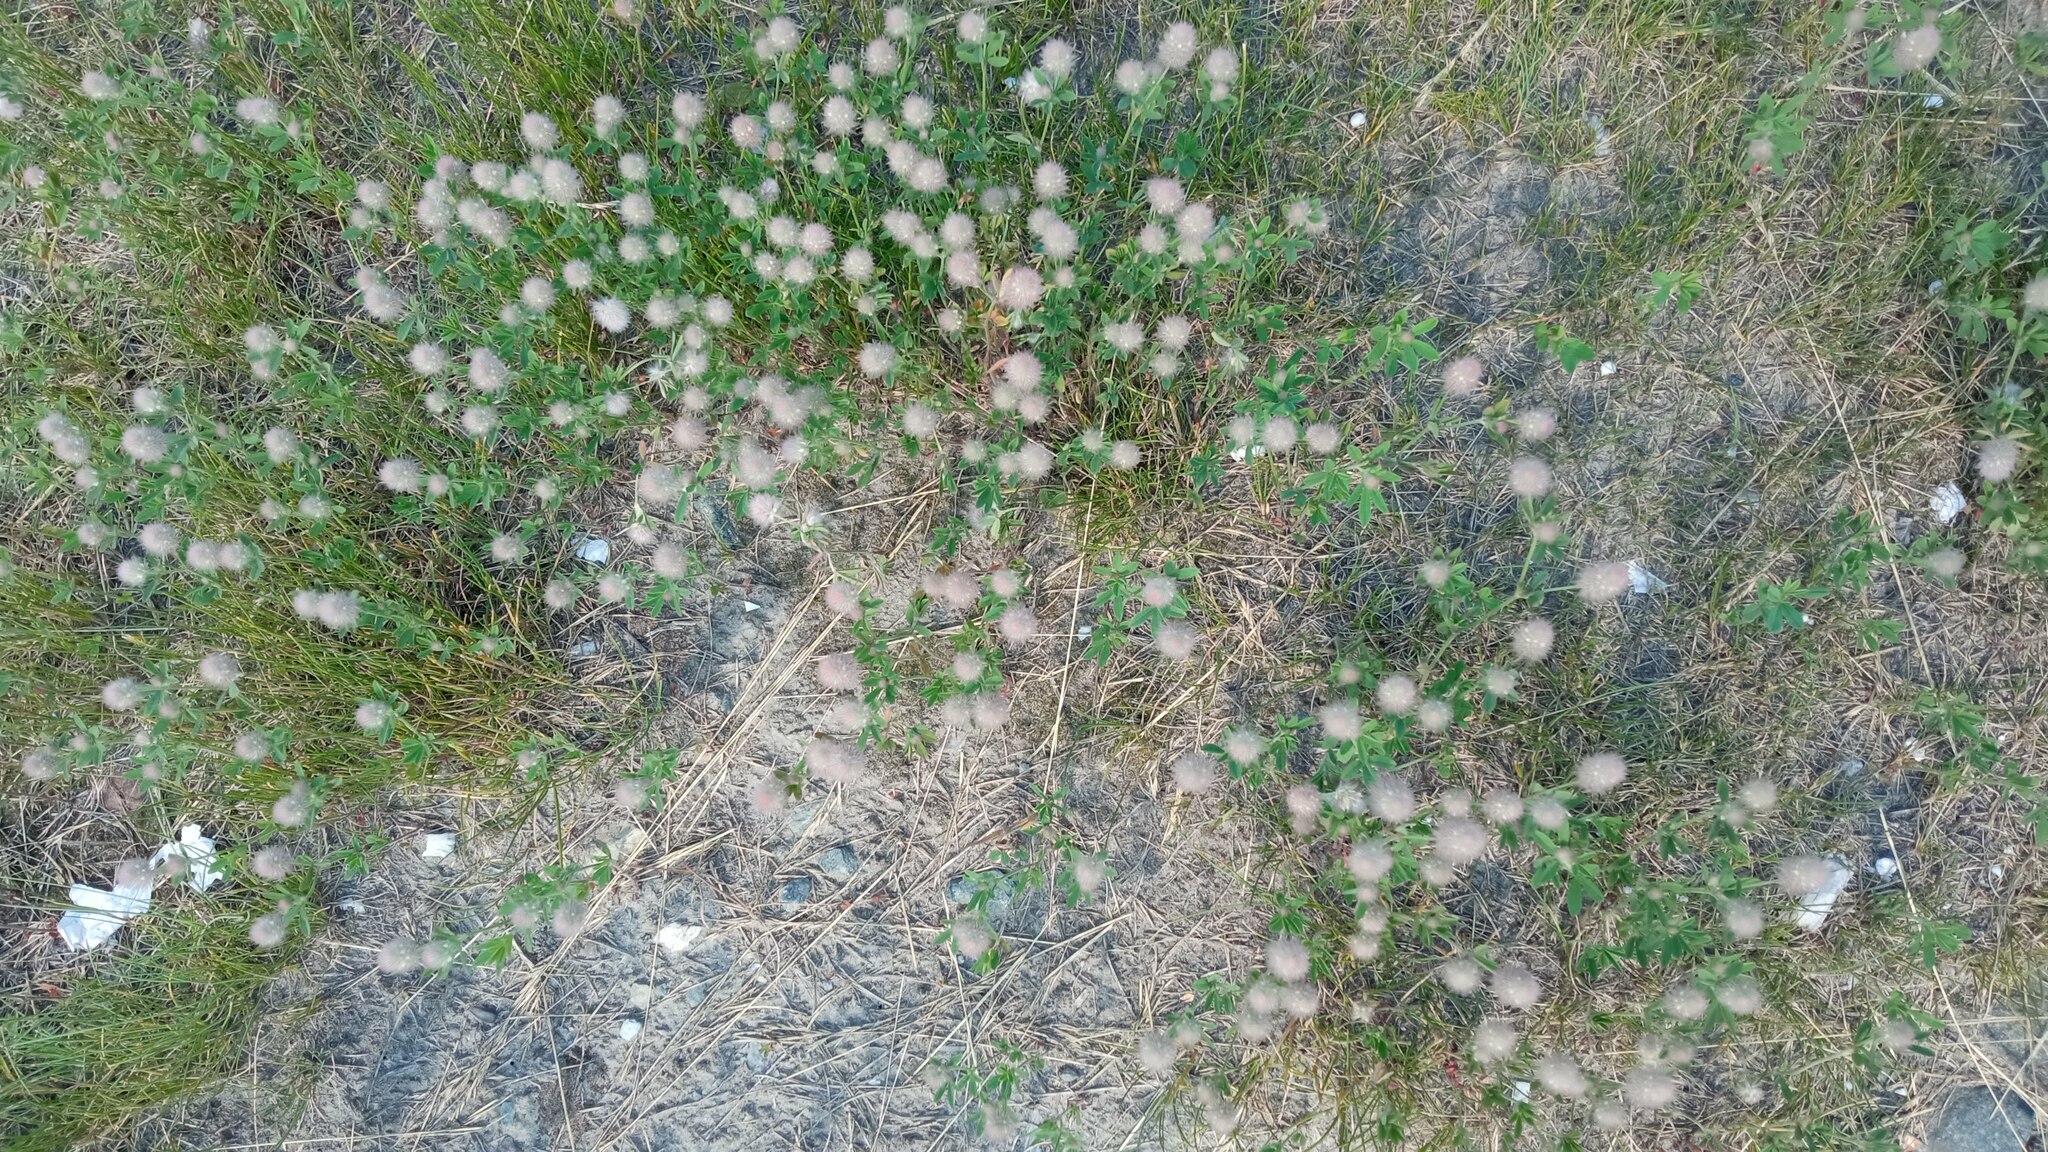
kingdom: Plantae
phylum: Tracheophyta
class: Magnoliopsida
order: Fabales
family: Fabaceae
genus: Trifolium
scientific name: Trifolium arvense
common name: Hare's-foot clover
